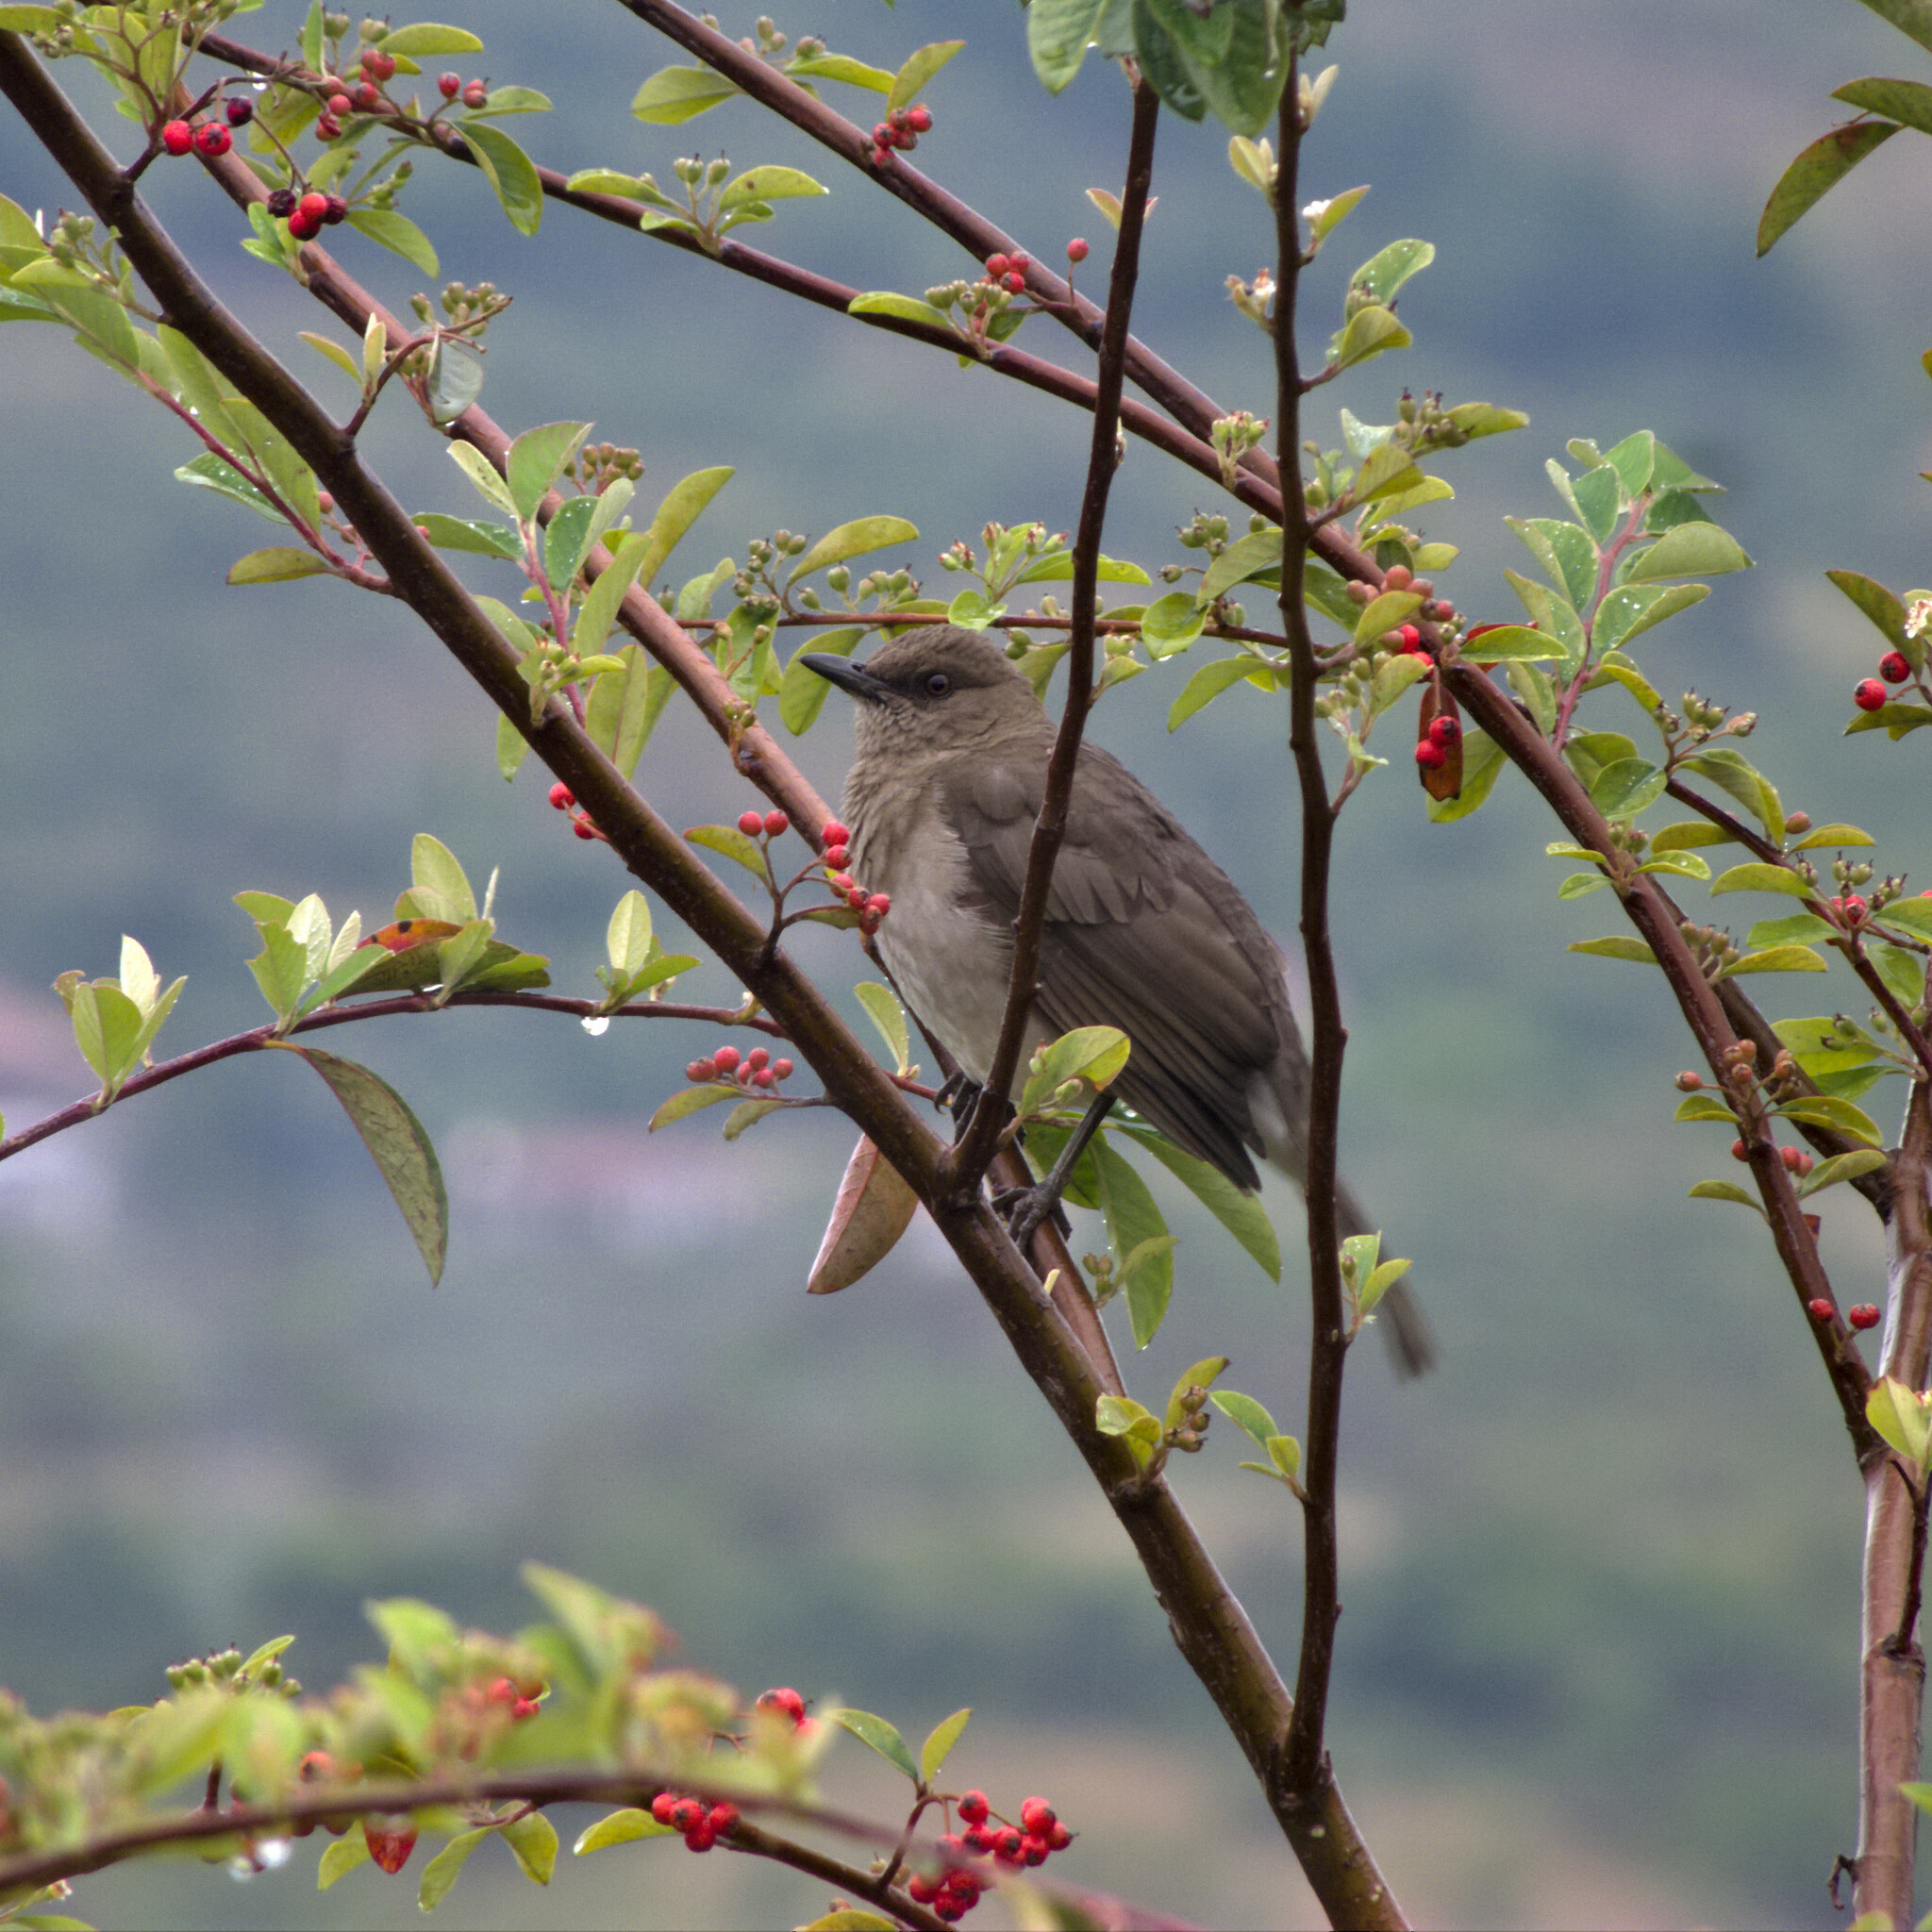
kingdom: Animalia
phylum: Chordata
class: Aves
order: Passeriformes
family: Turdidae
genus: Turdus
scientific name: Turdus ignobilis
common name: Black-billed thrush
